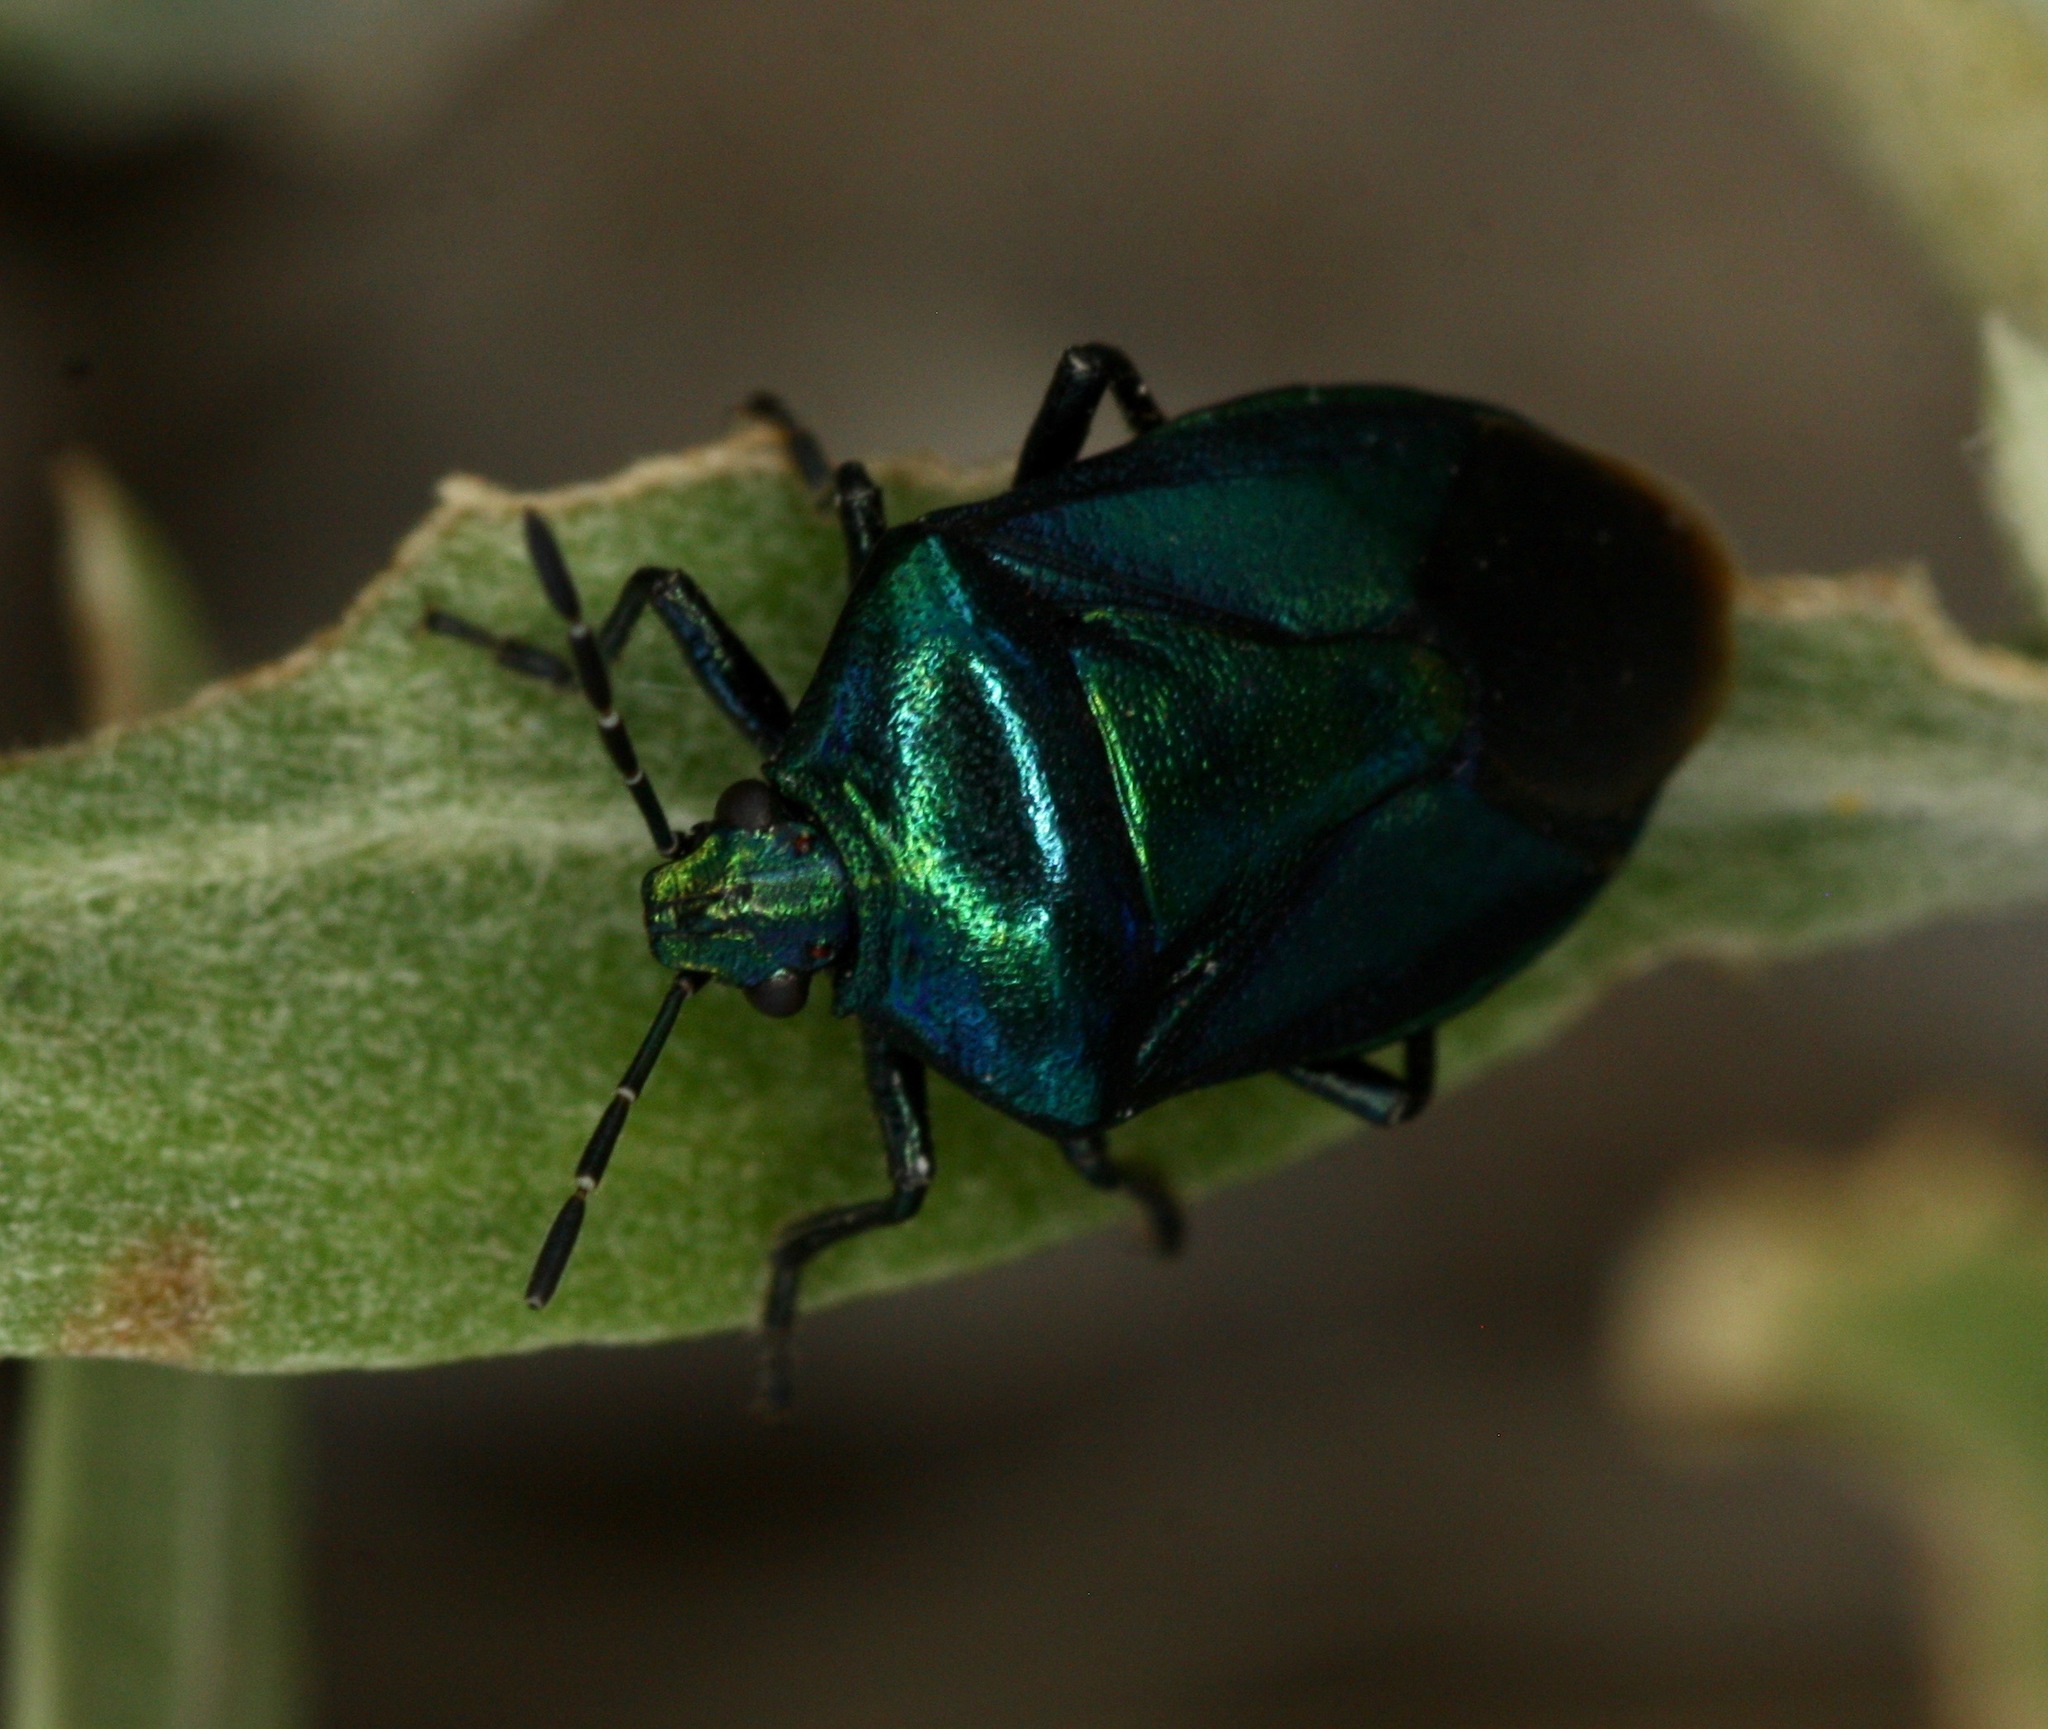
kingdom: Animalia
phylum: Arthropoda
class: Insecta
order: Hemiptera
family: Pentatomidae
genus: Zicrona
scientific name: Zicrona
